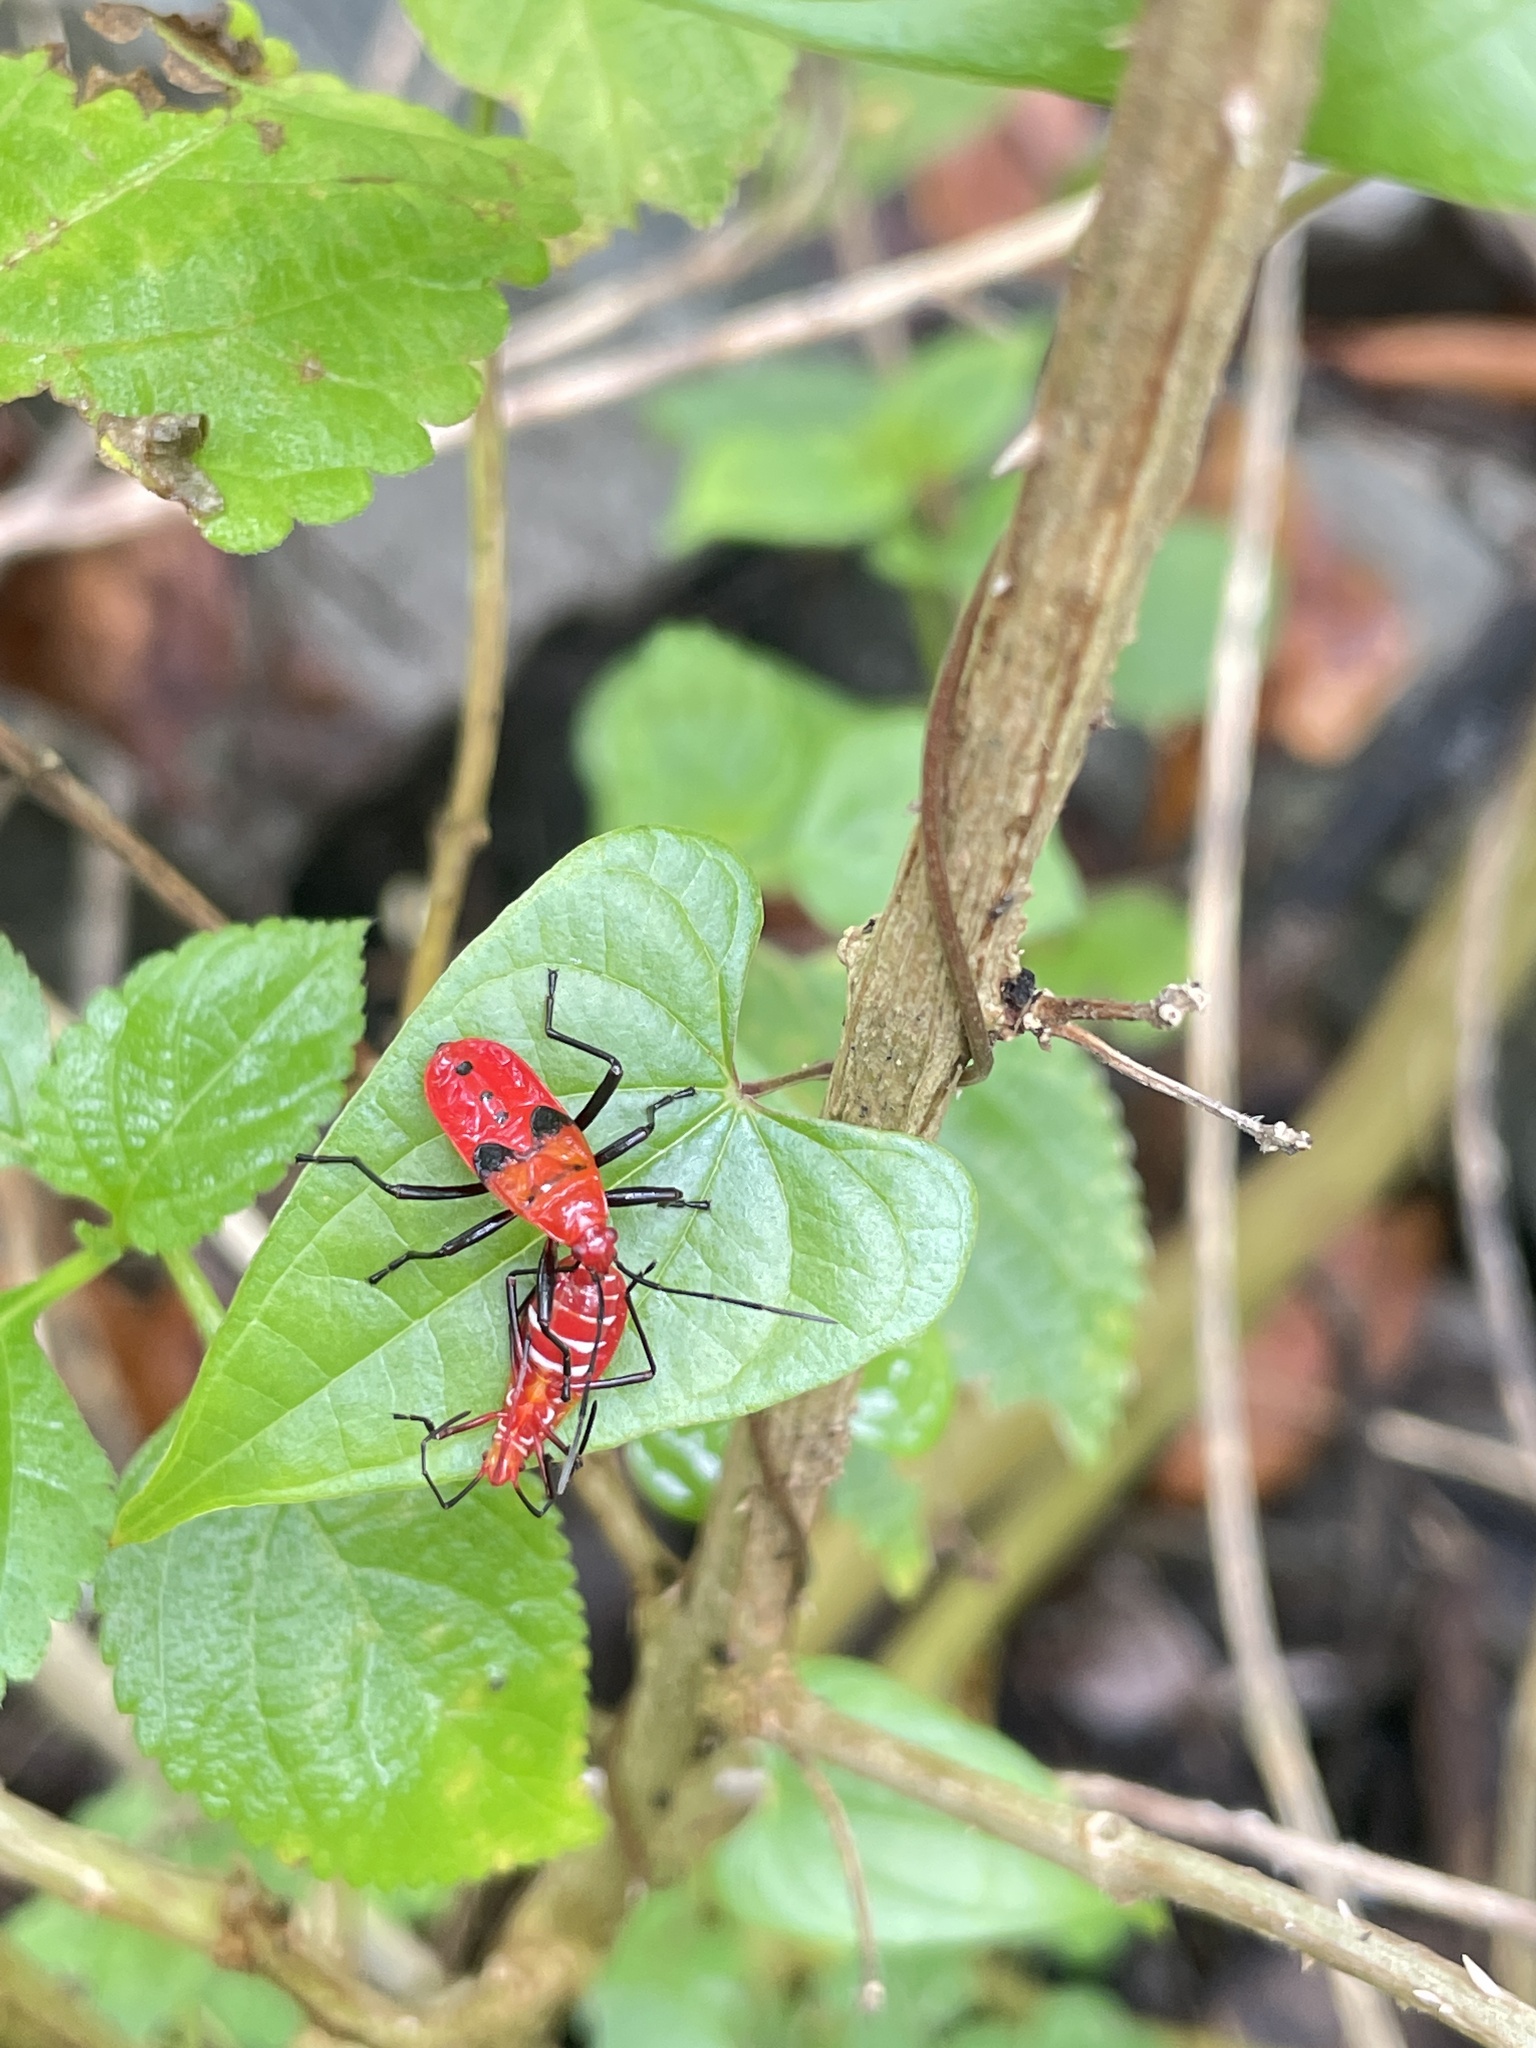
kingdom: Animalia
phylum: Arthropoda
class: Insecta
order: Hemiptera
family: Pyrrhocoridae
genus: Antilochus
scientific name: Antilochus
